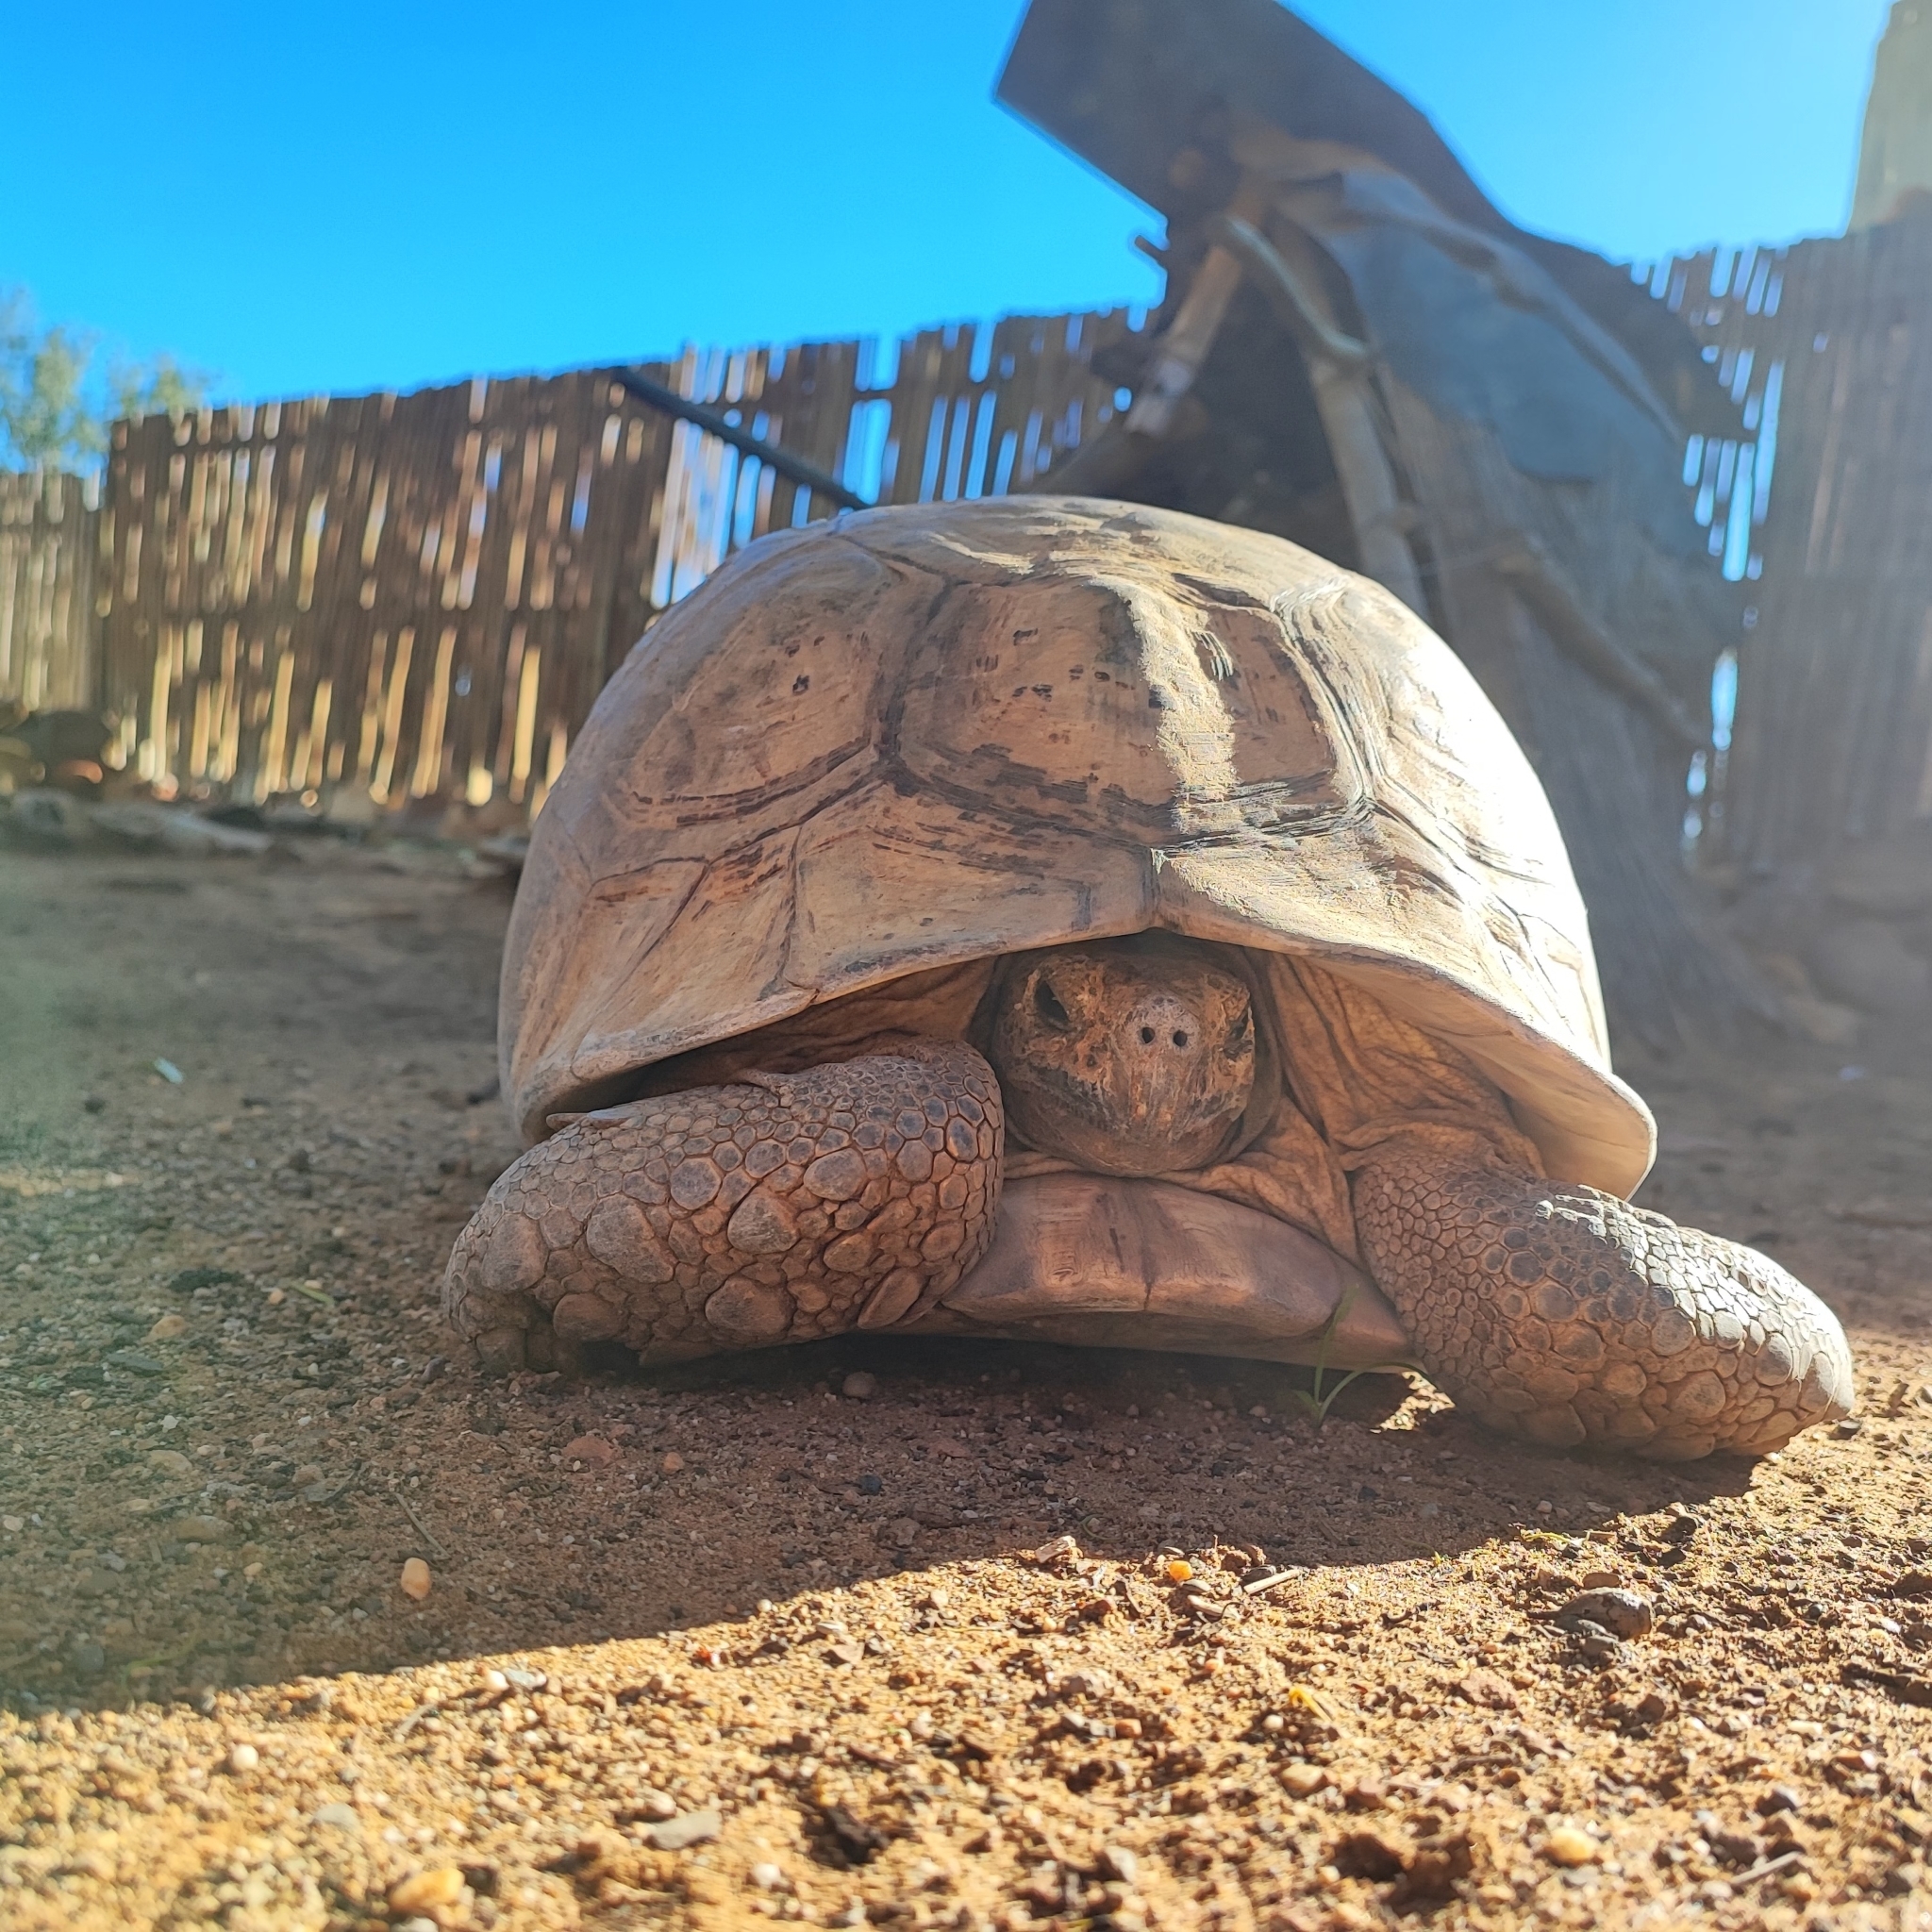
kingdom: Animalia
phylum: Chordata
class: Testudines
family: Testudinidae
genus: Stigmochelys
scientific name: Stigmochelys pardalis
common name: Leopard tortoise
